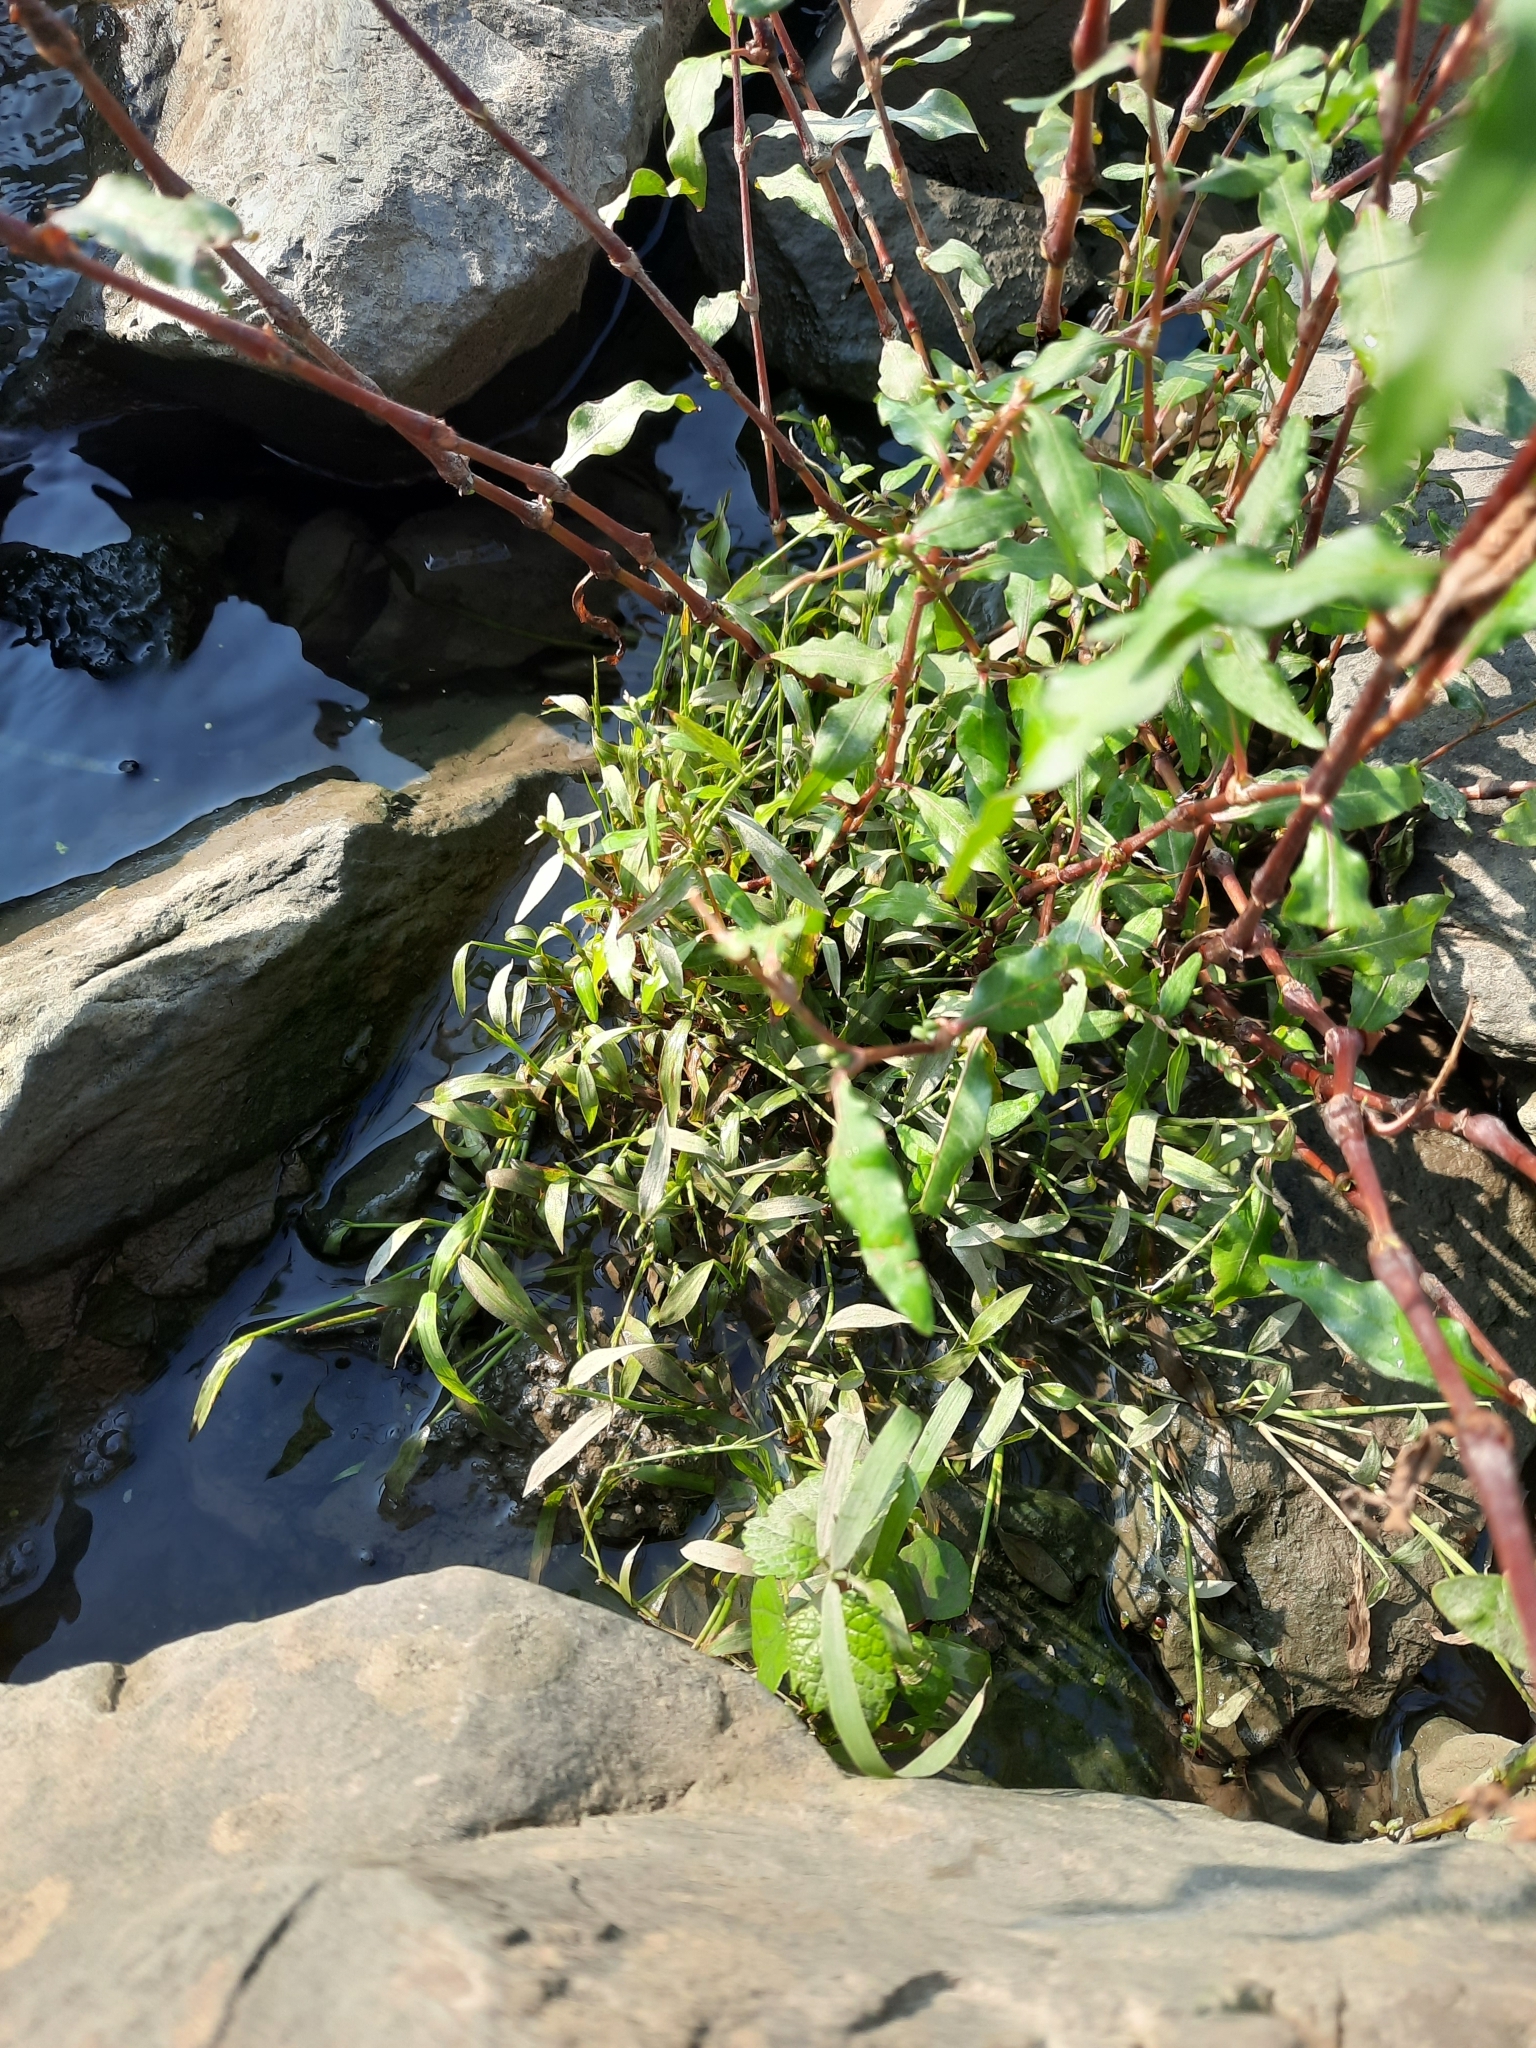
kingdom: Plantae
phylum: Tracheophyta
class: Magnoliopsida
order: Caryophyllales
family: Polygonaceae
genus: Persicaria
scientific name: Persicaria hydropiper
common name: Water-pepper
